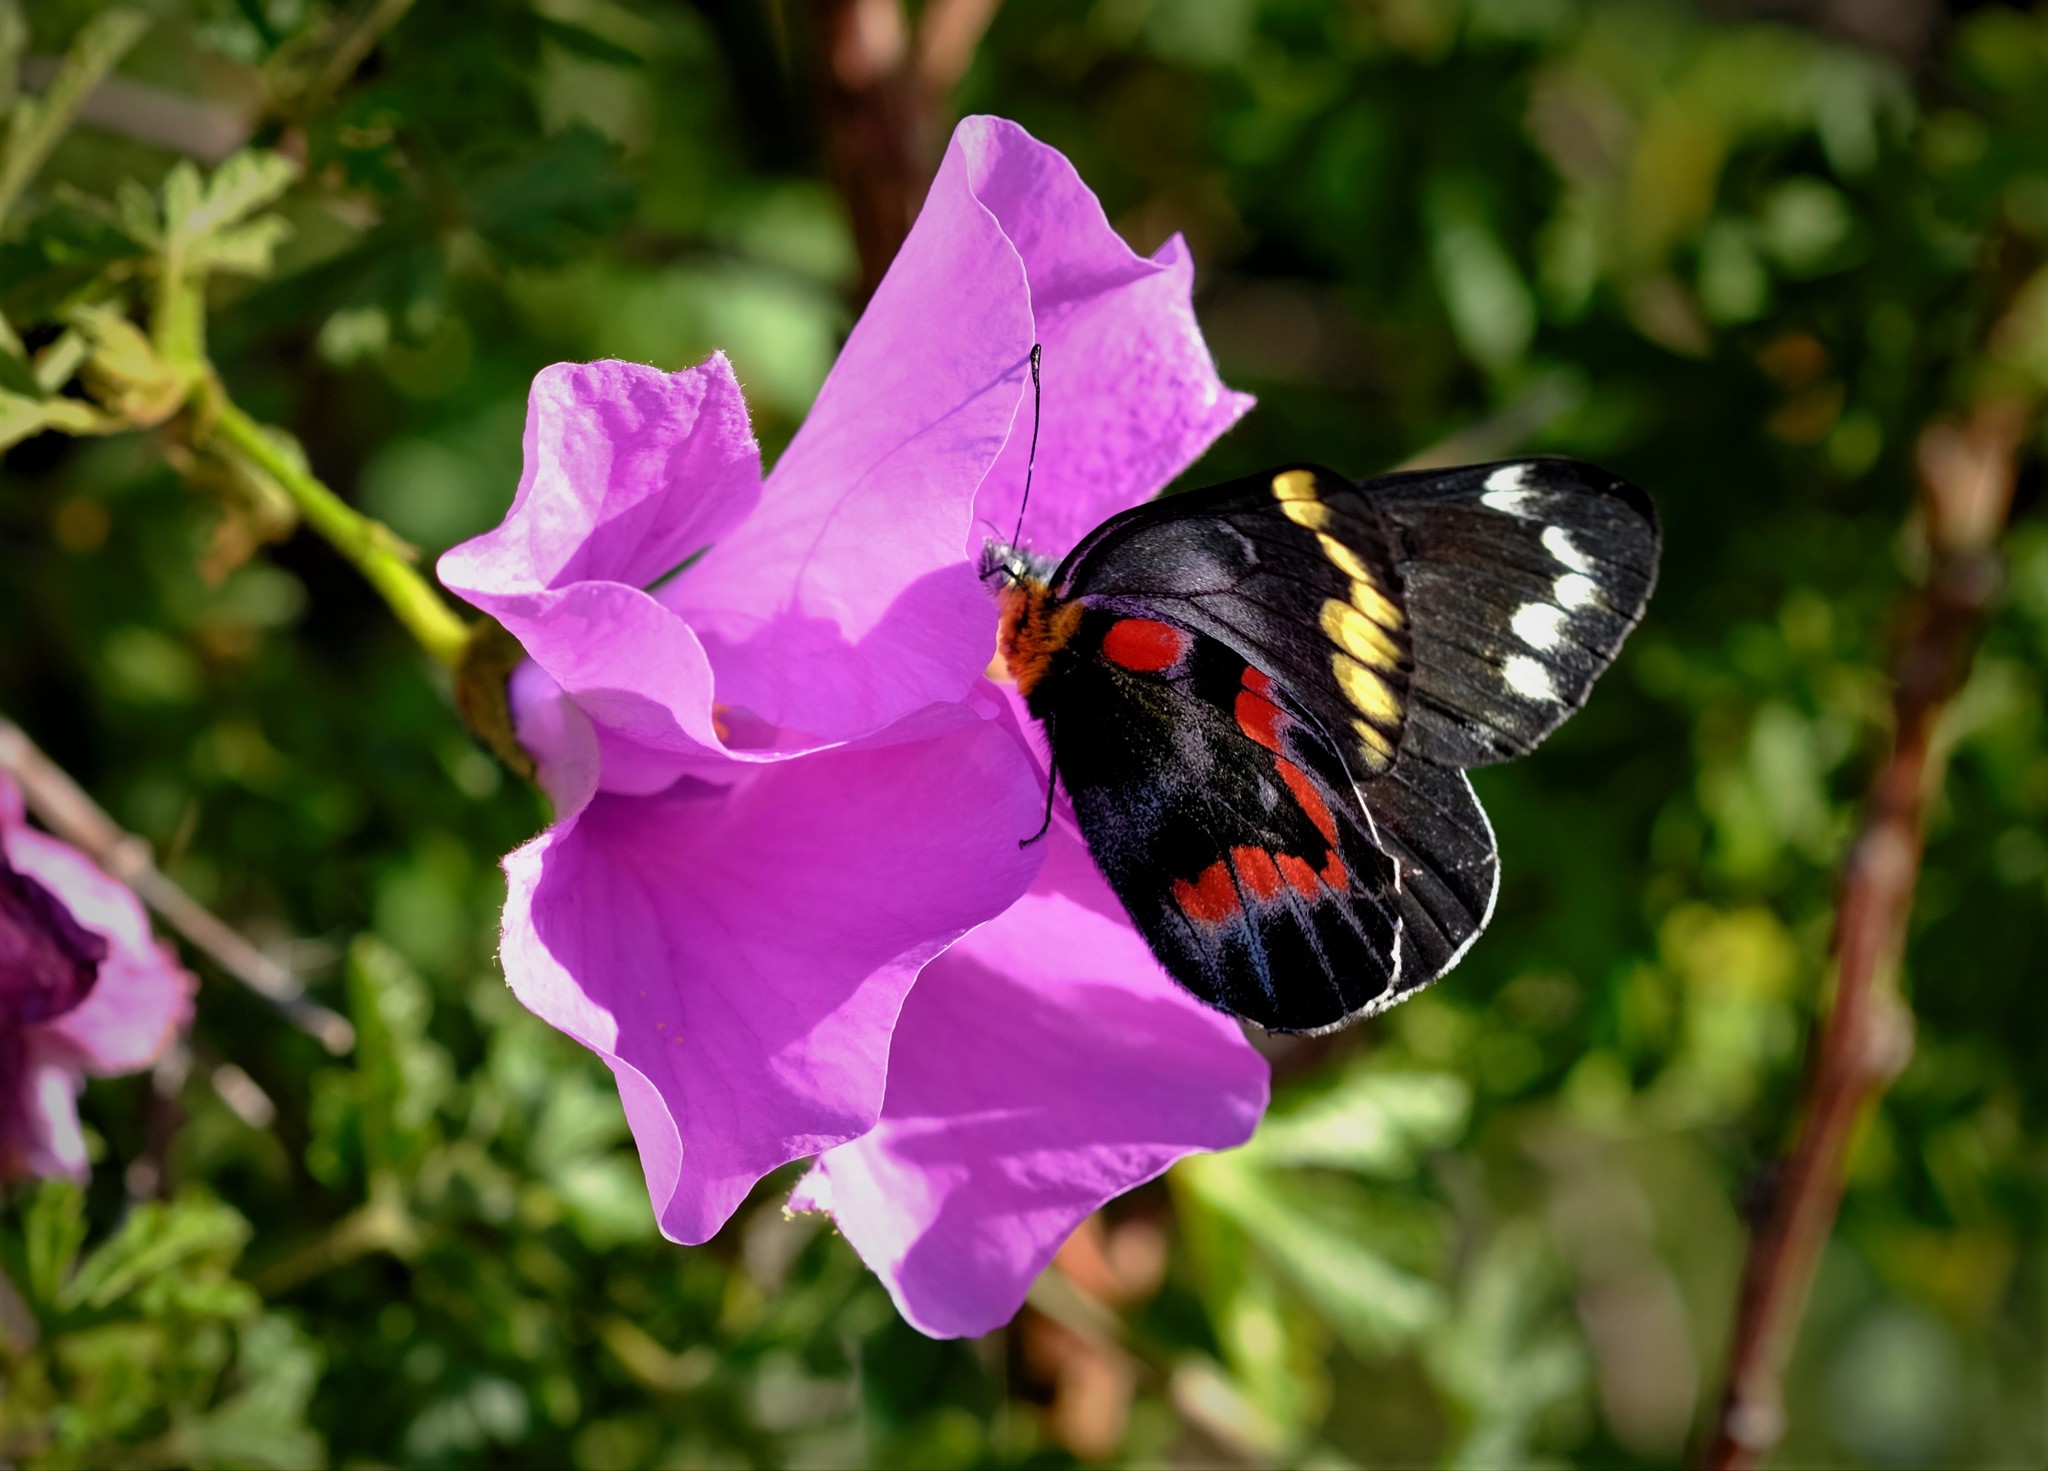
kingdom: Animalia
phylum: Arthropoda
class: Insecta
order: Lepidoptera
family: Pieridae
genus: Delias
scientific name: Delias harpalyce
